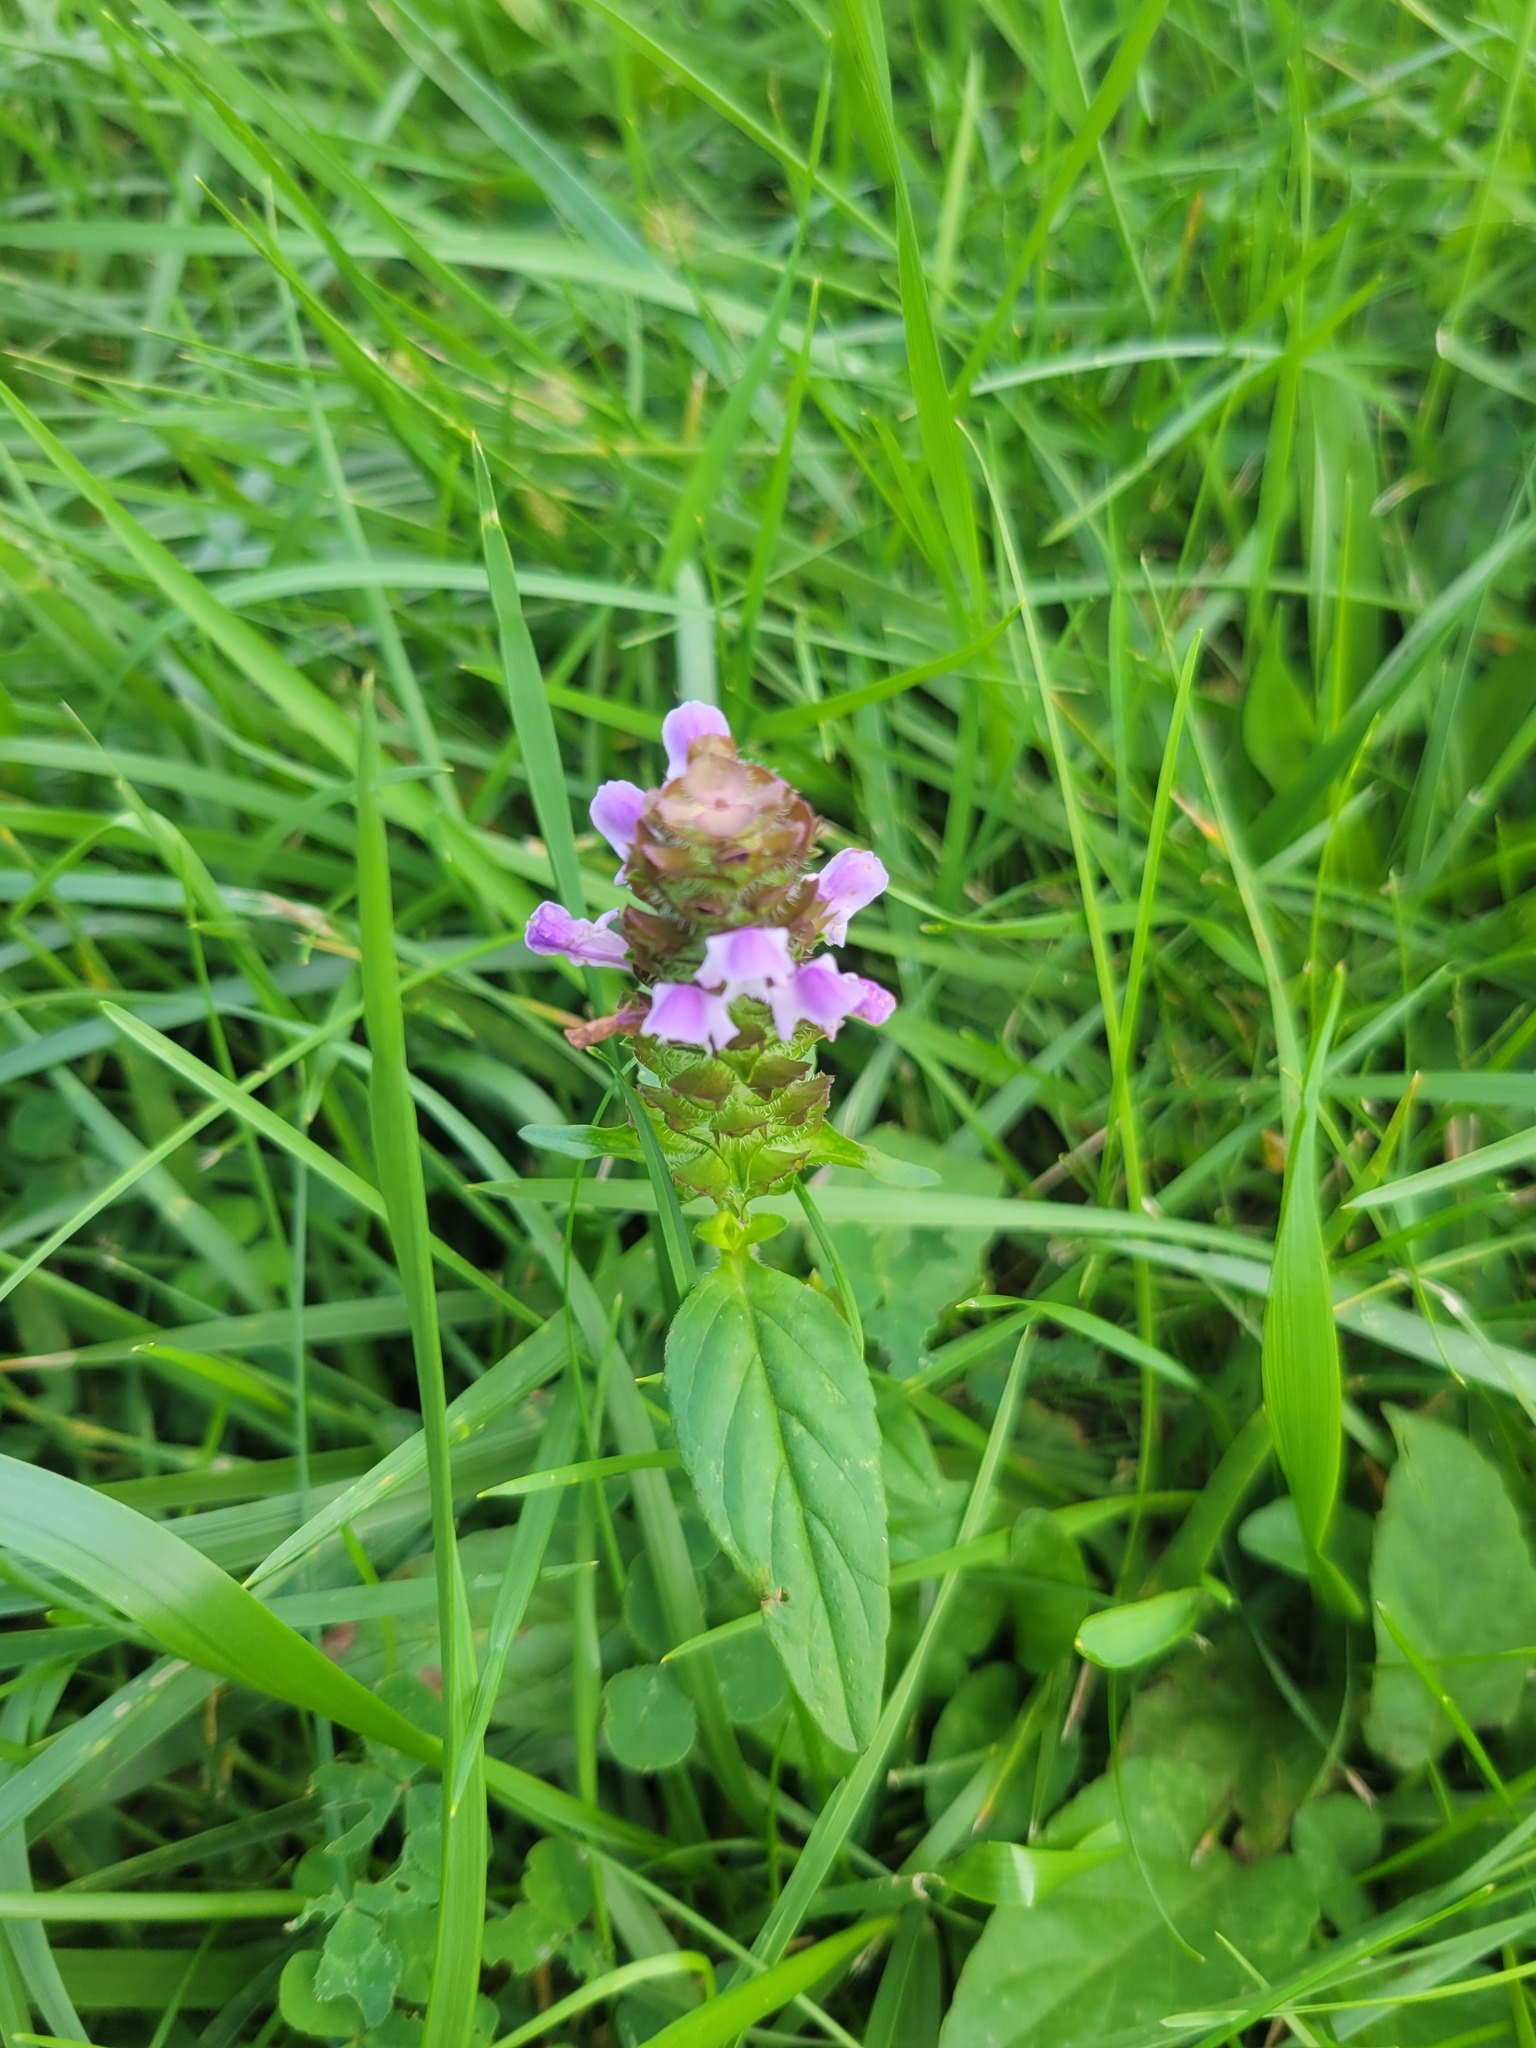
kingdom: Plantae
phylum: Tracheophyta
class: Magnoliopsida
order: Lamiales
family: Lamiaceae
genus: Prunella
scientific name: Prunella vulgaris
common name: Heal-all
